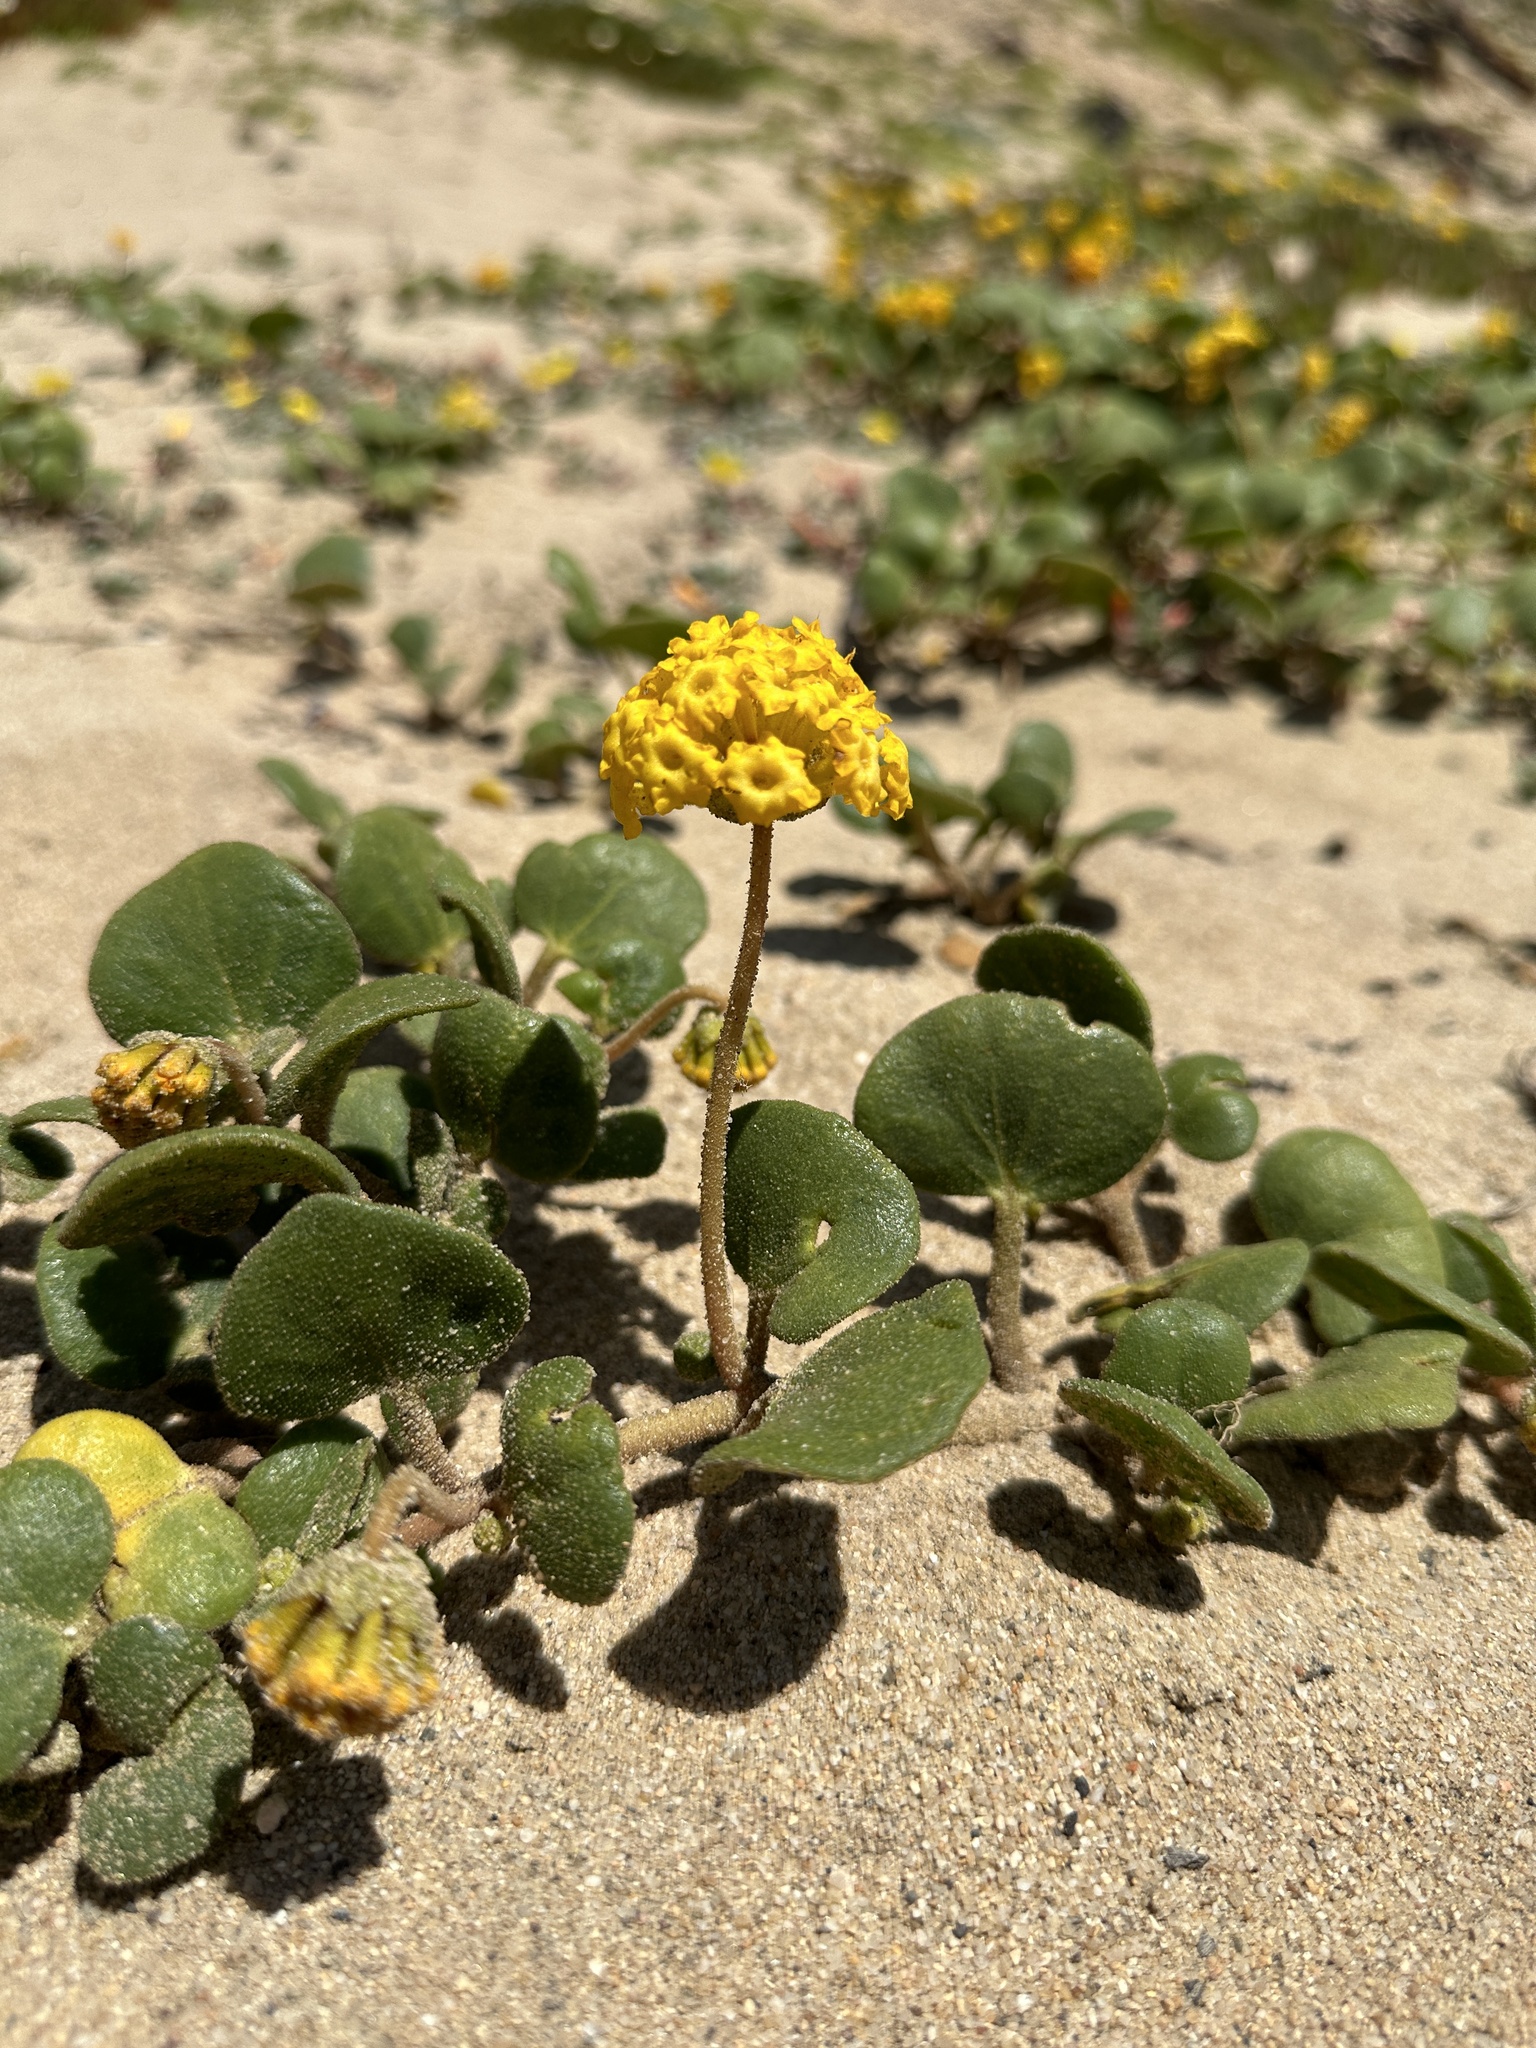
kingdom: Plantae
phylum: Tracheophyta
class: Magnoliopsida
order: Caryophyllales
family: Nyctaginaceae
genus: Abronia
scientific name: Abronia latifolia
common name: Yellow sand-verbena
